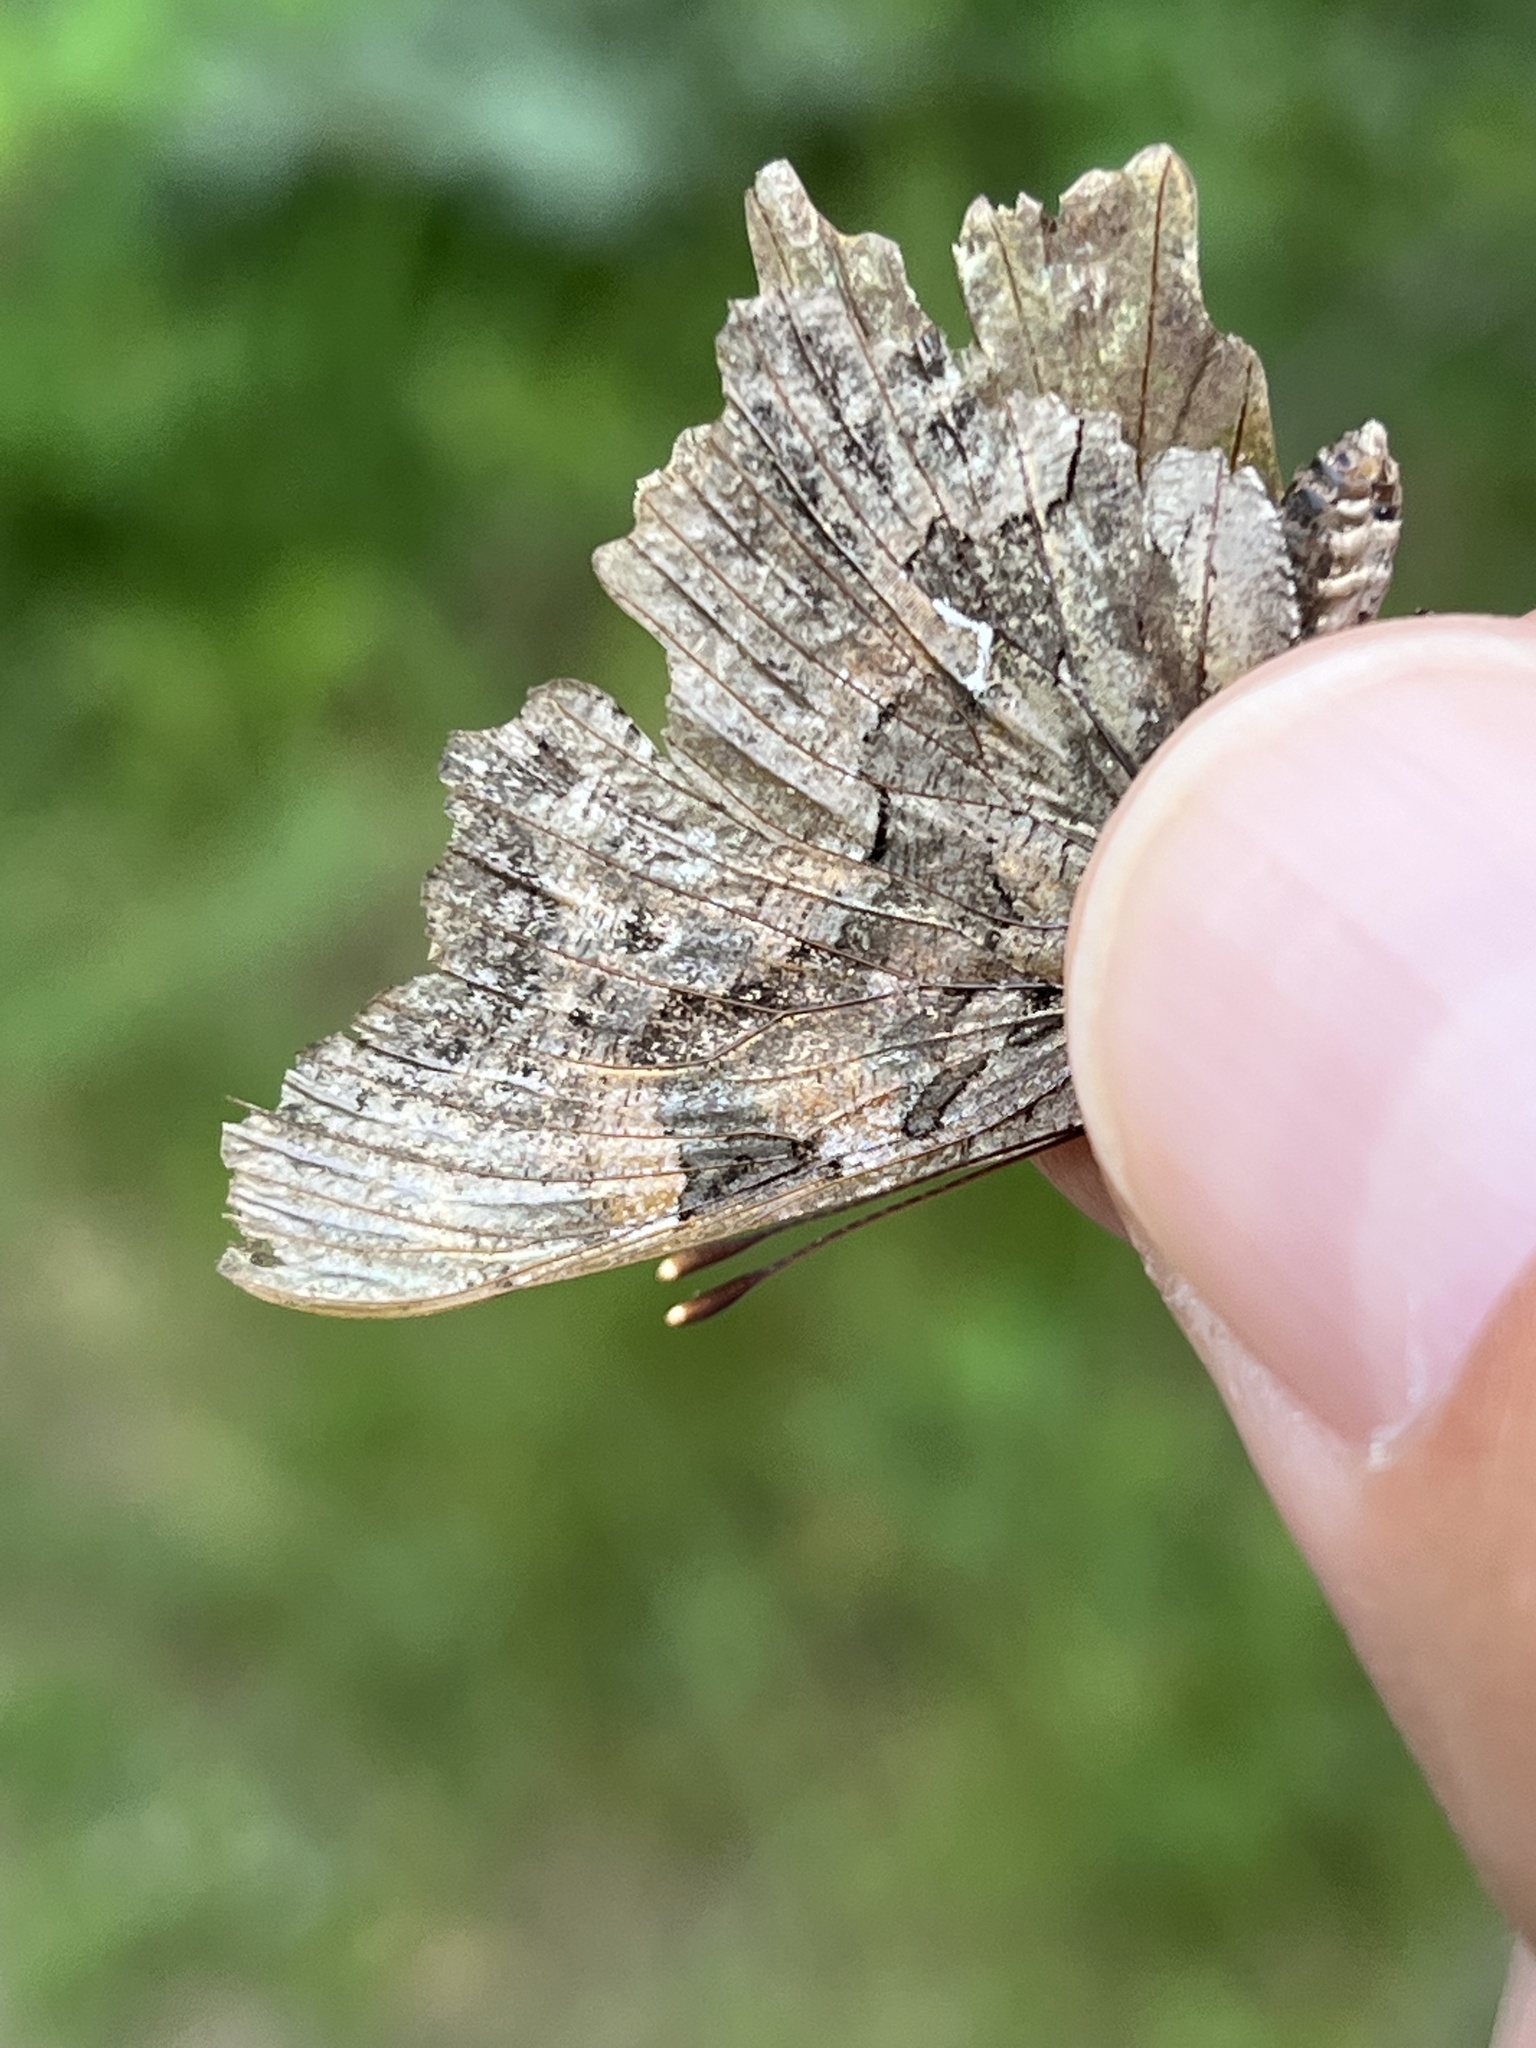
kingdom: Animalia
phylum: Arthropoda
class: Insecta
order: Lepidoptera
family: Nymphalidae
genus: Polygonia
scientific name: Polygonia faunus
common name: Green comma
